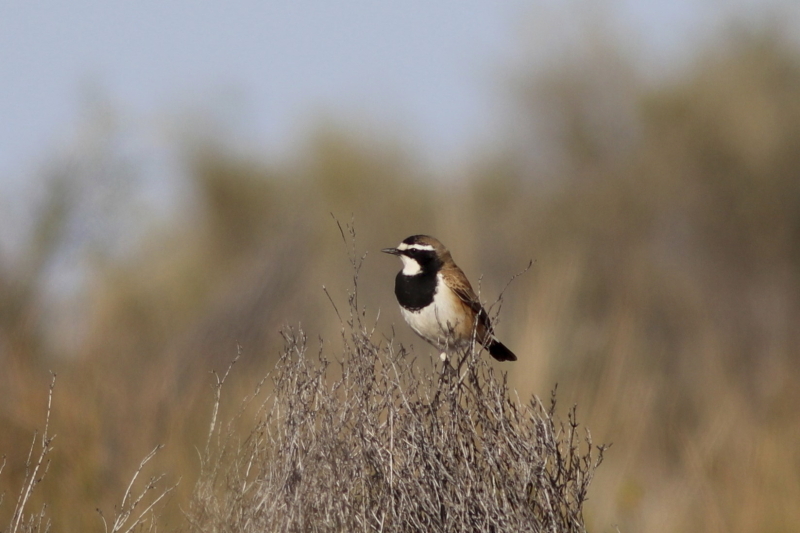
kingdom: Animalia
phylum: Chordata
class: Aves
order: Passeriformes
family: Muscicapidae
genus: Oenanthe
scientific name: Oenanthe pileata
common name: Capped wheatear
